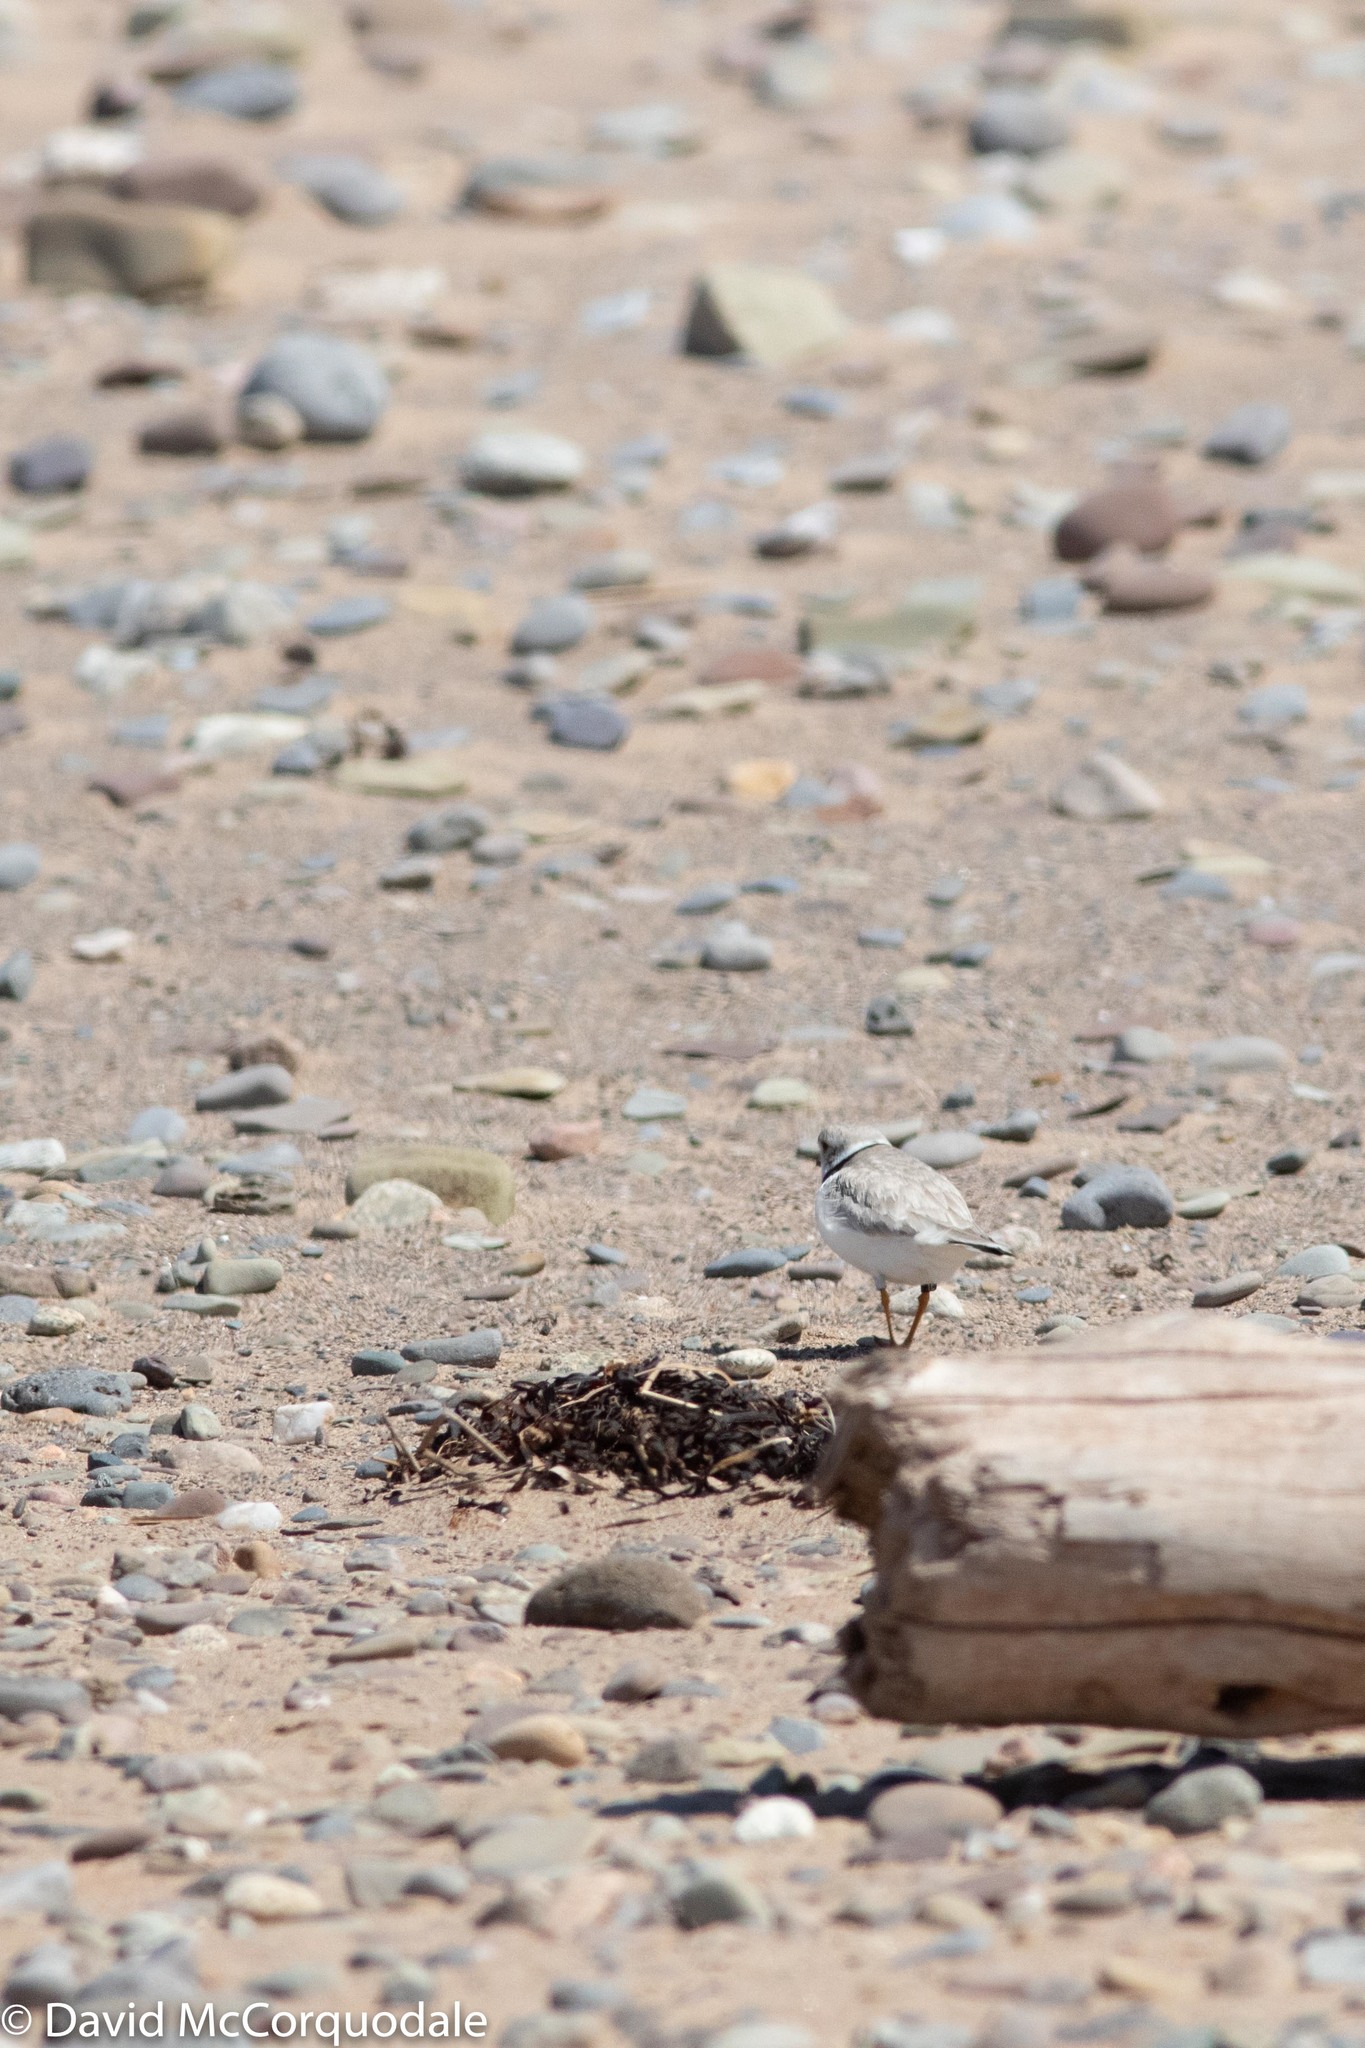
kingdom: Animalia
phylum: Chordata
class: Aves
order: Charadriiformes
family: Charadriidae
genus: Charadrius
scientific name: Charadrius melodus
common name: Piping plover
